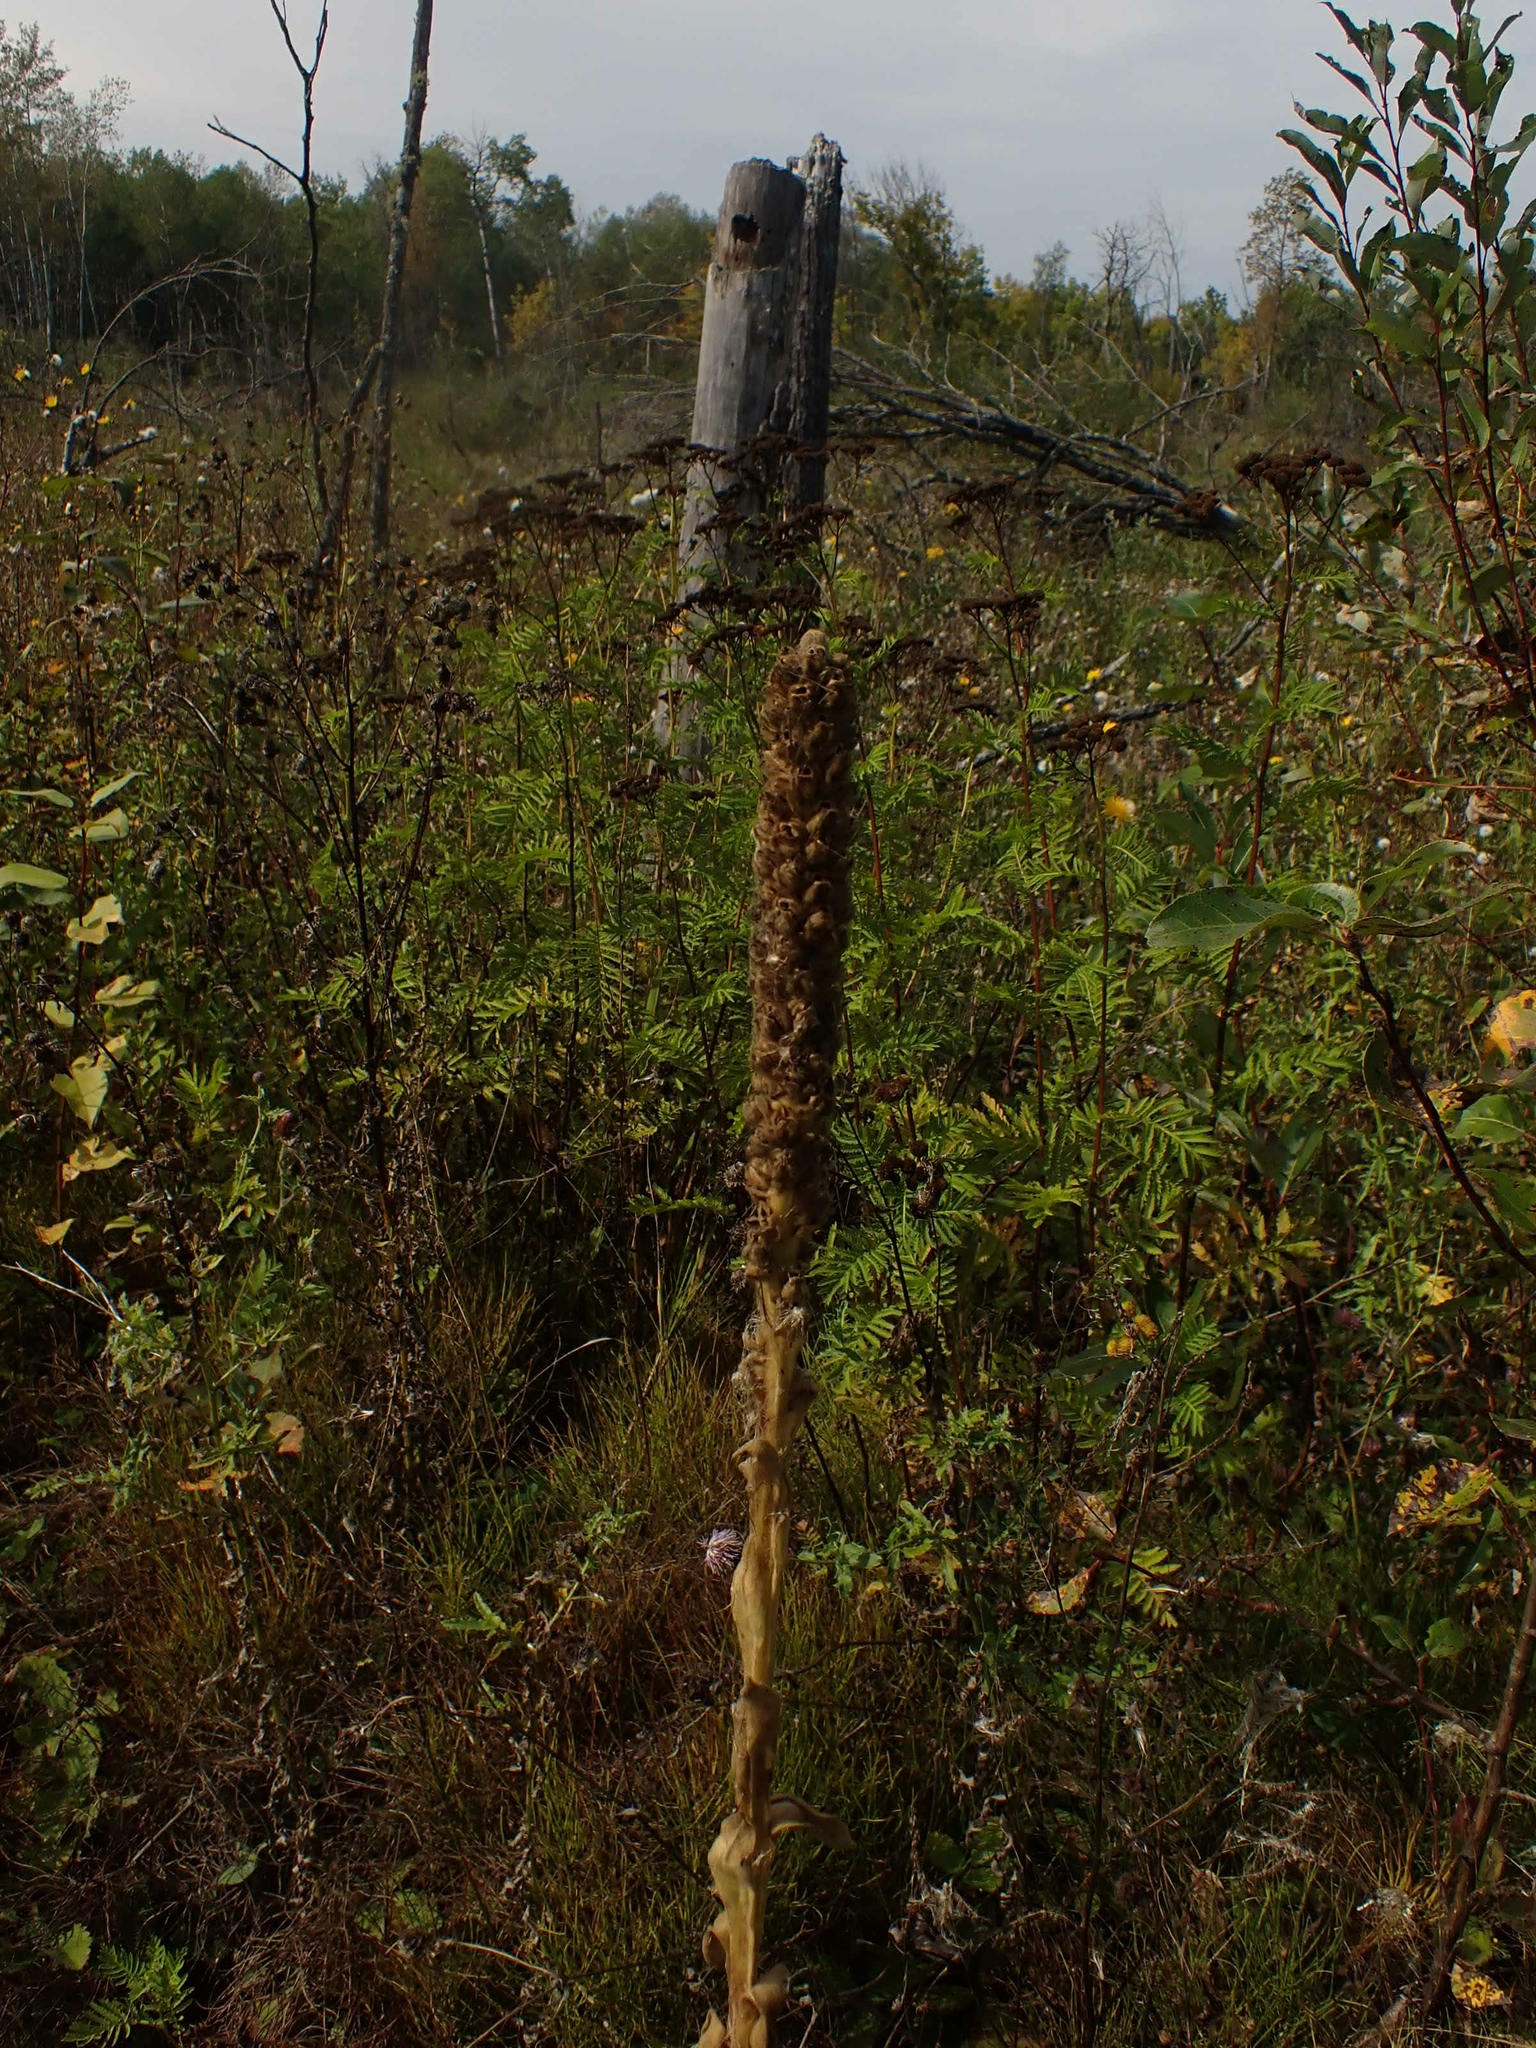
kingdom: Plantae
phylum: Tracheophyta
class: Magnoliopsida
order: Lamiales
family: Scrophulariaceae
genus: Verbascum
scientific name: Verbascum thapsus
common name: Common mullein
